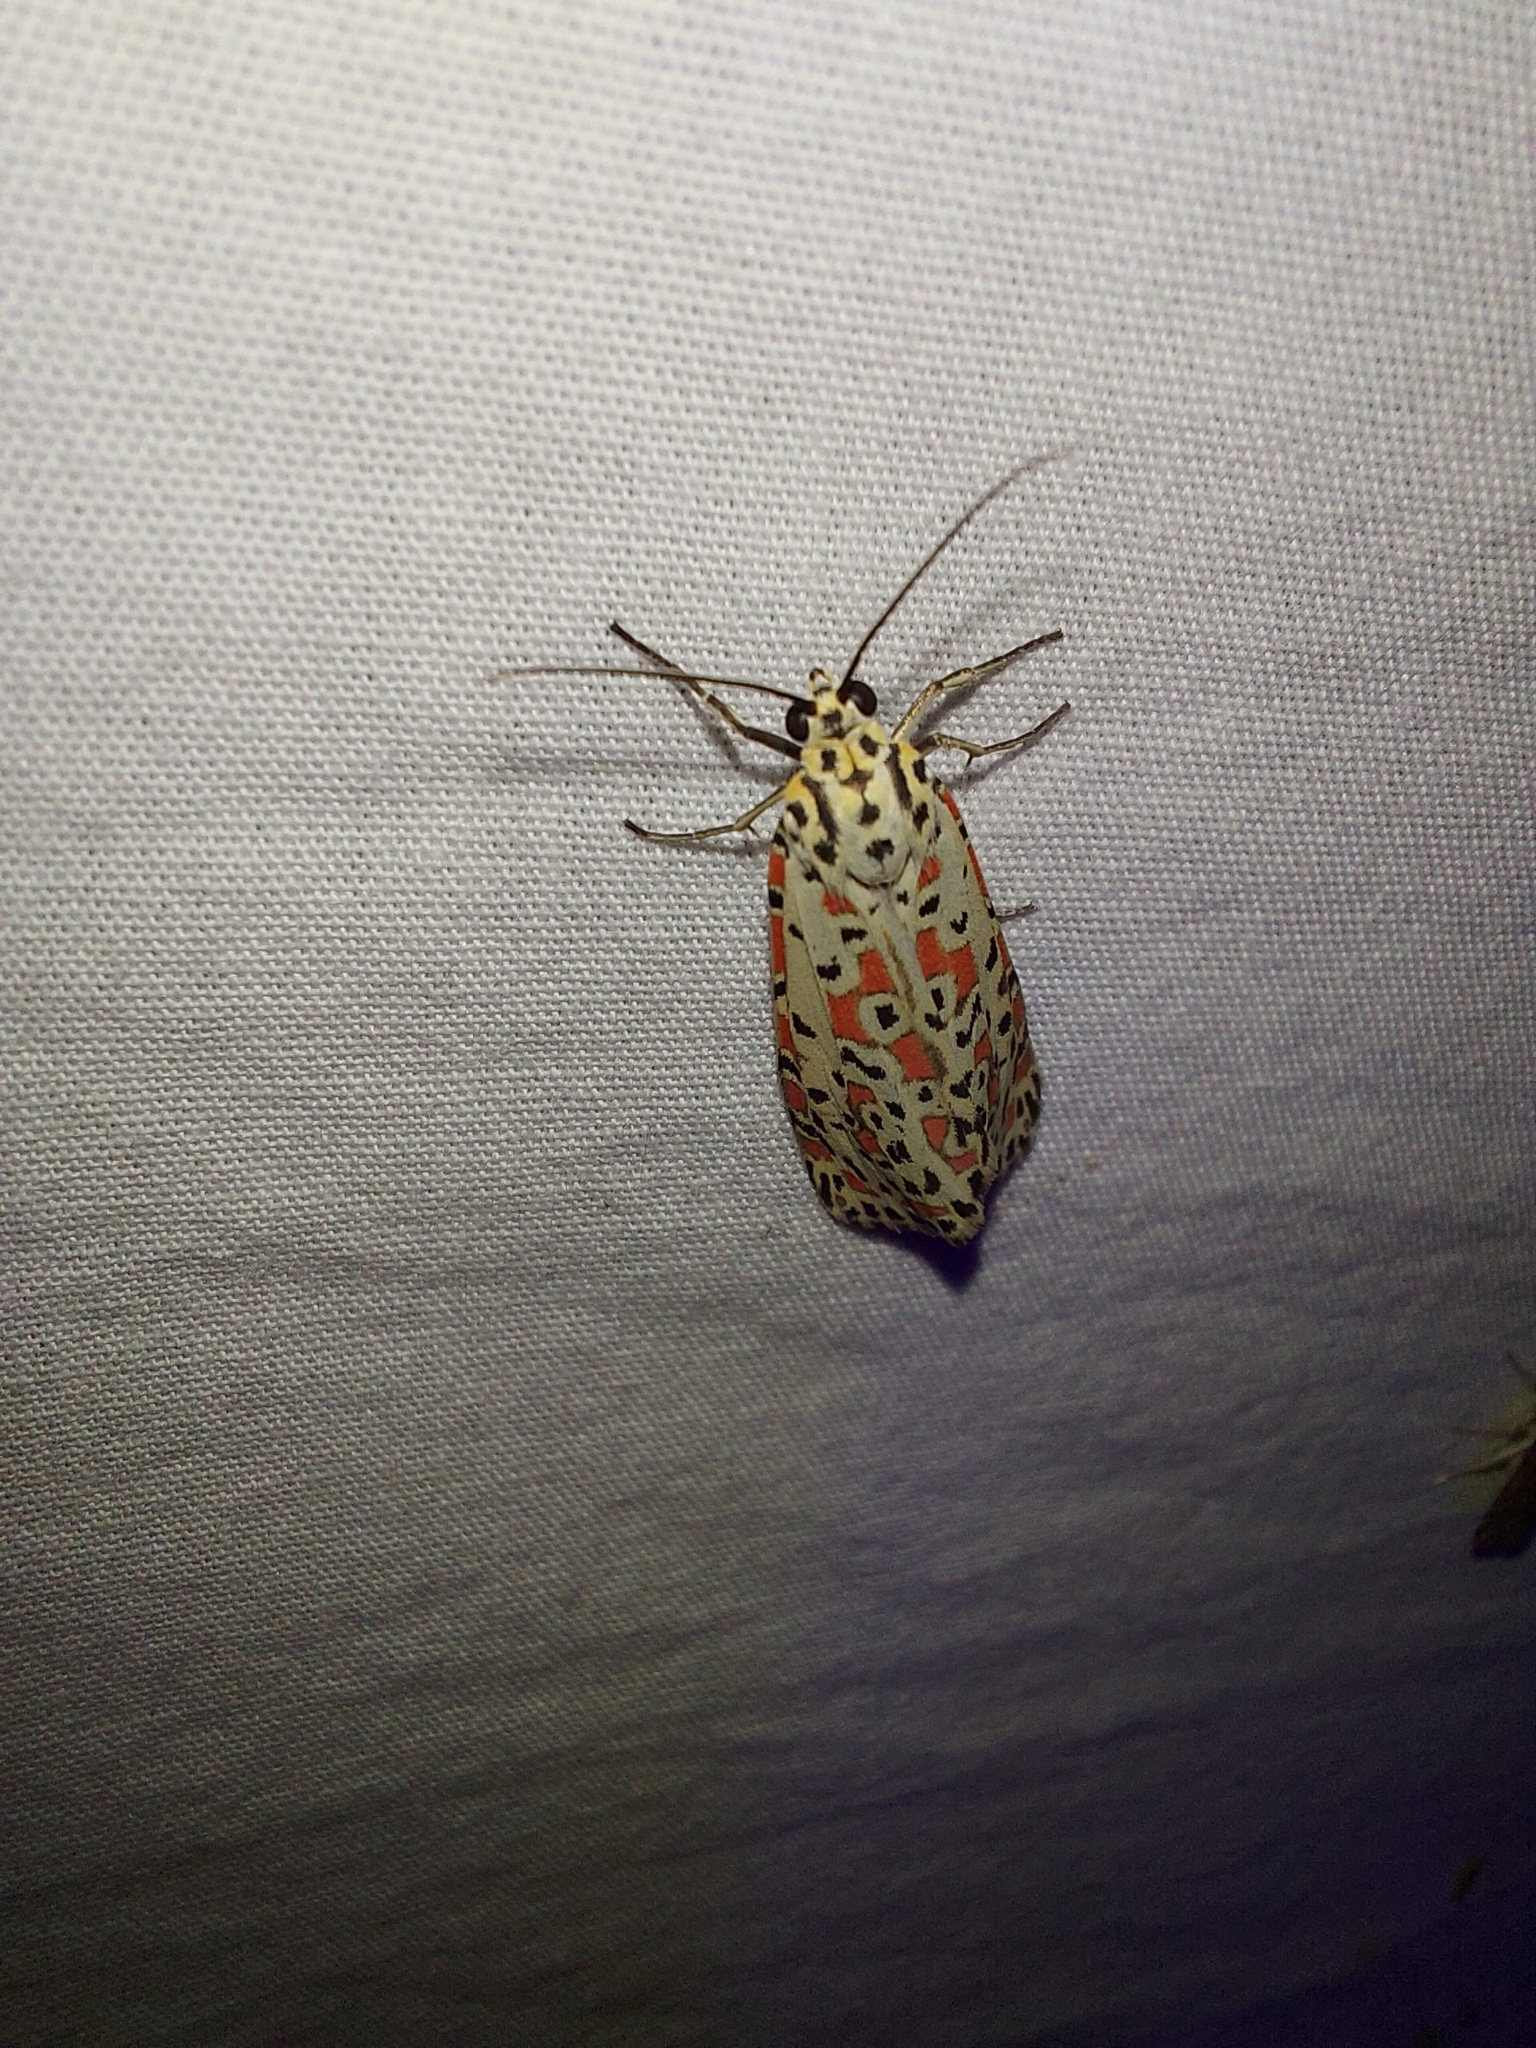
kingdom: Animalia
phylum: Arthropoda
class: Insecta
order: Lepidoptera
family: Erebidae
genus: Utetheisa
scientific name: Utetheisa pulchelloides
